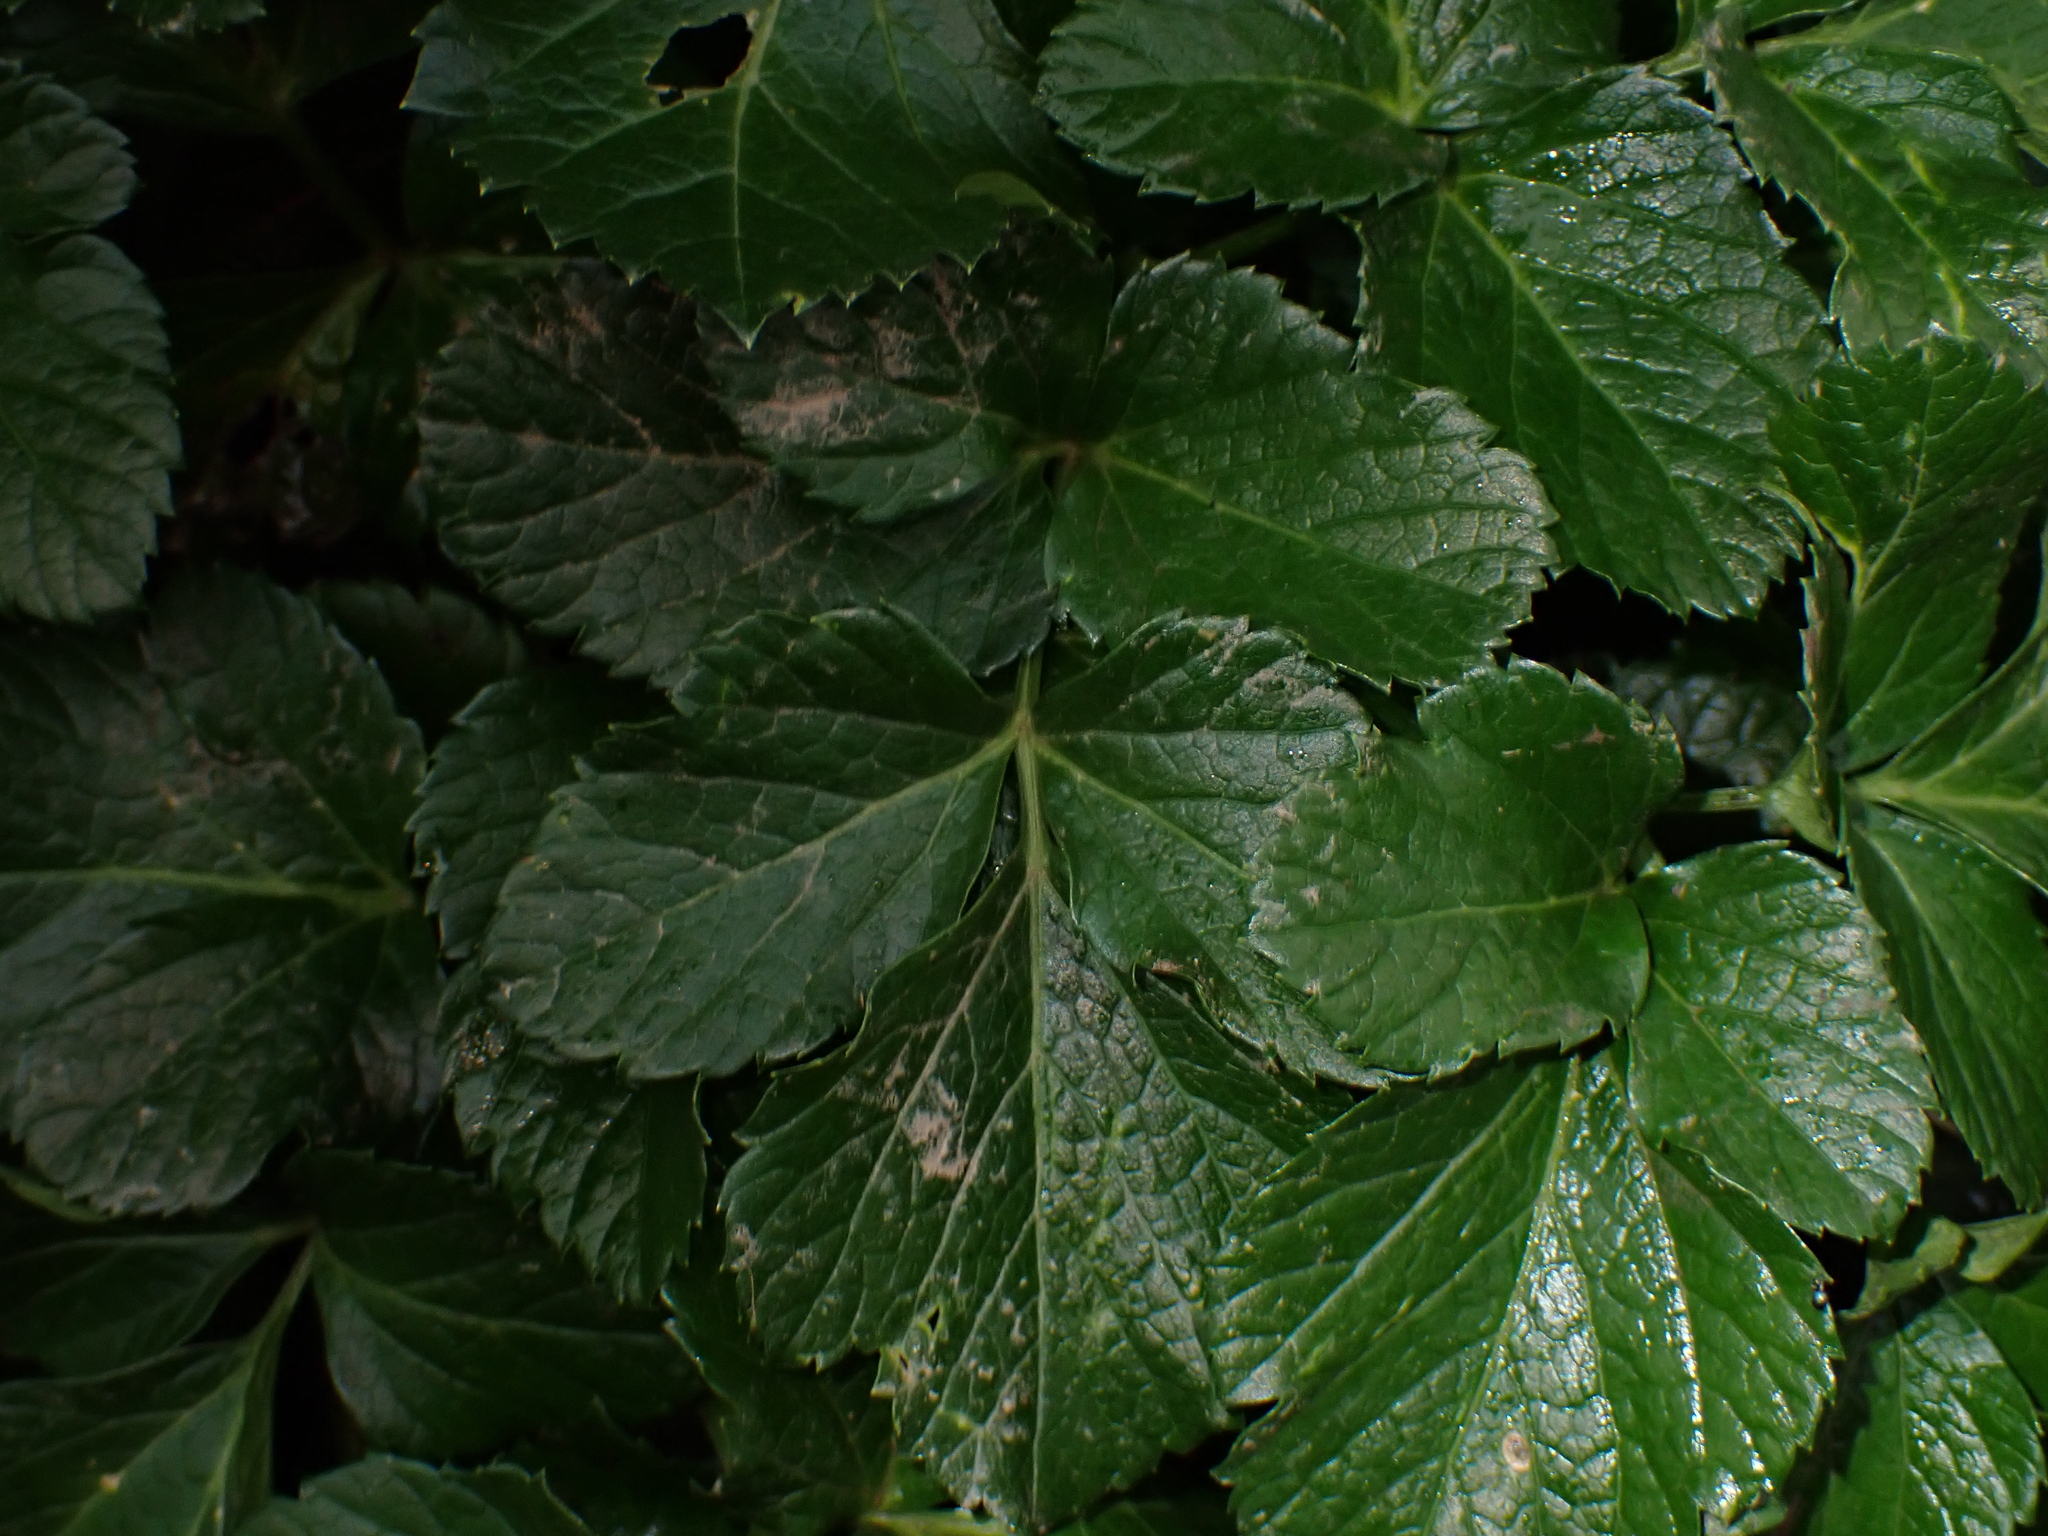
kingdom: Plantae
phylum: Tracheophyta
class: Magnoliopsida
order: Apiales
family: Apiaceae
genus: Smyrnium
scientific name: Smyrnium olusatrum
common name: Alexanders
